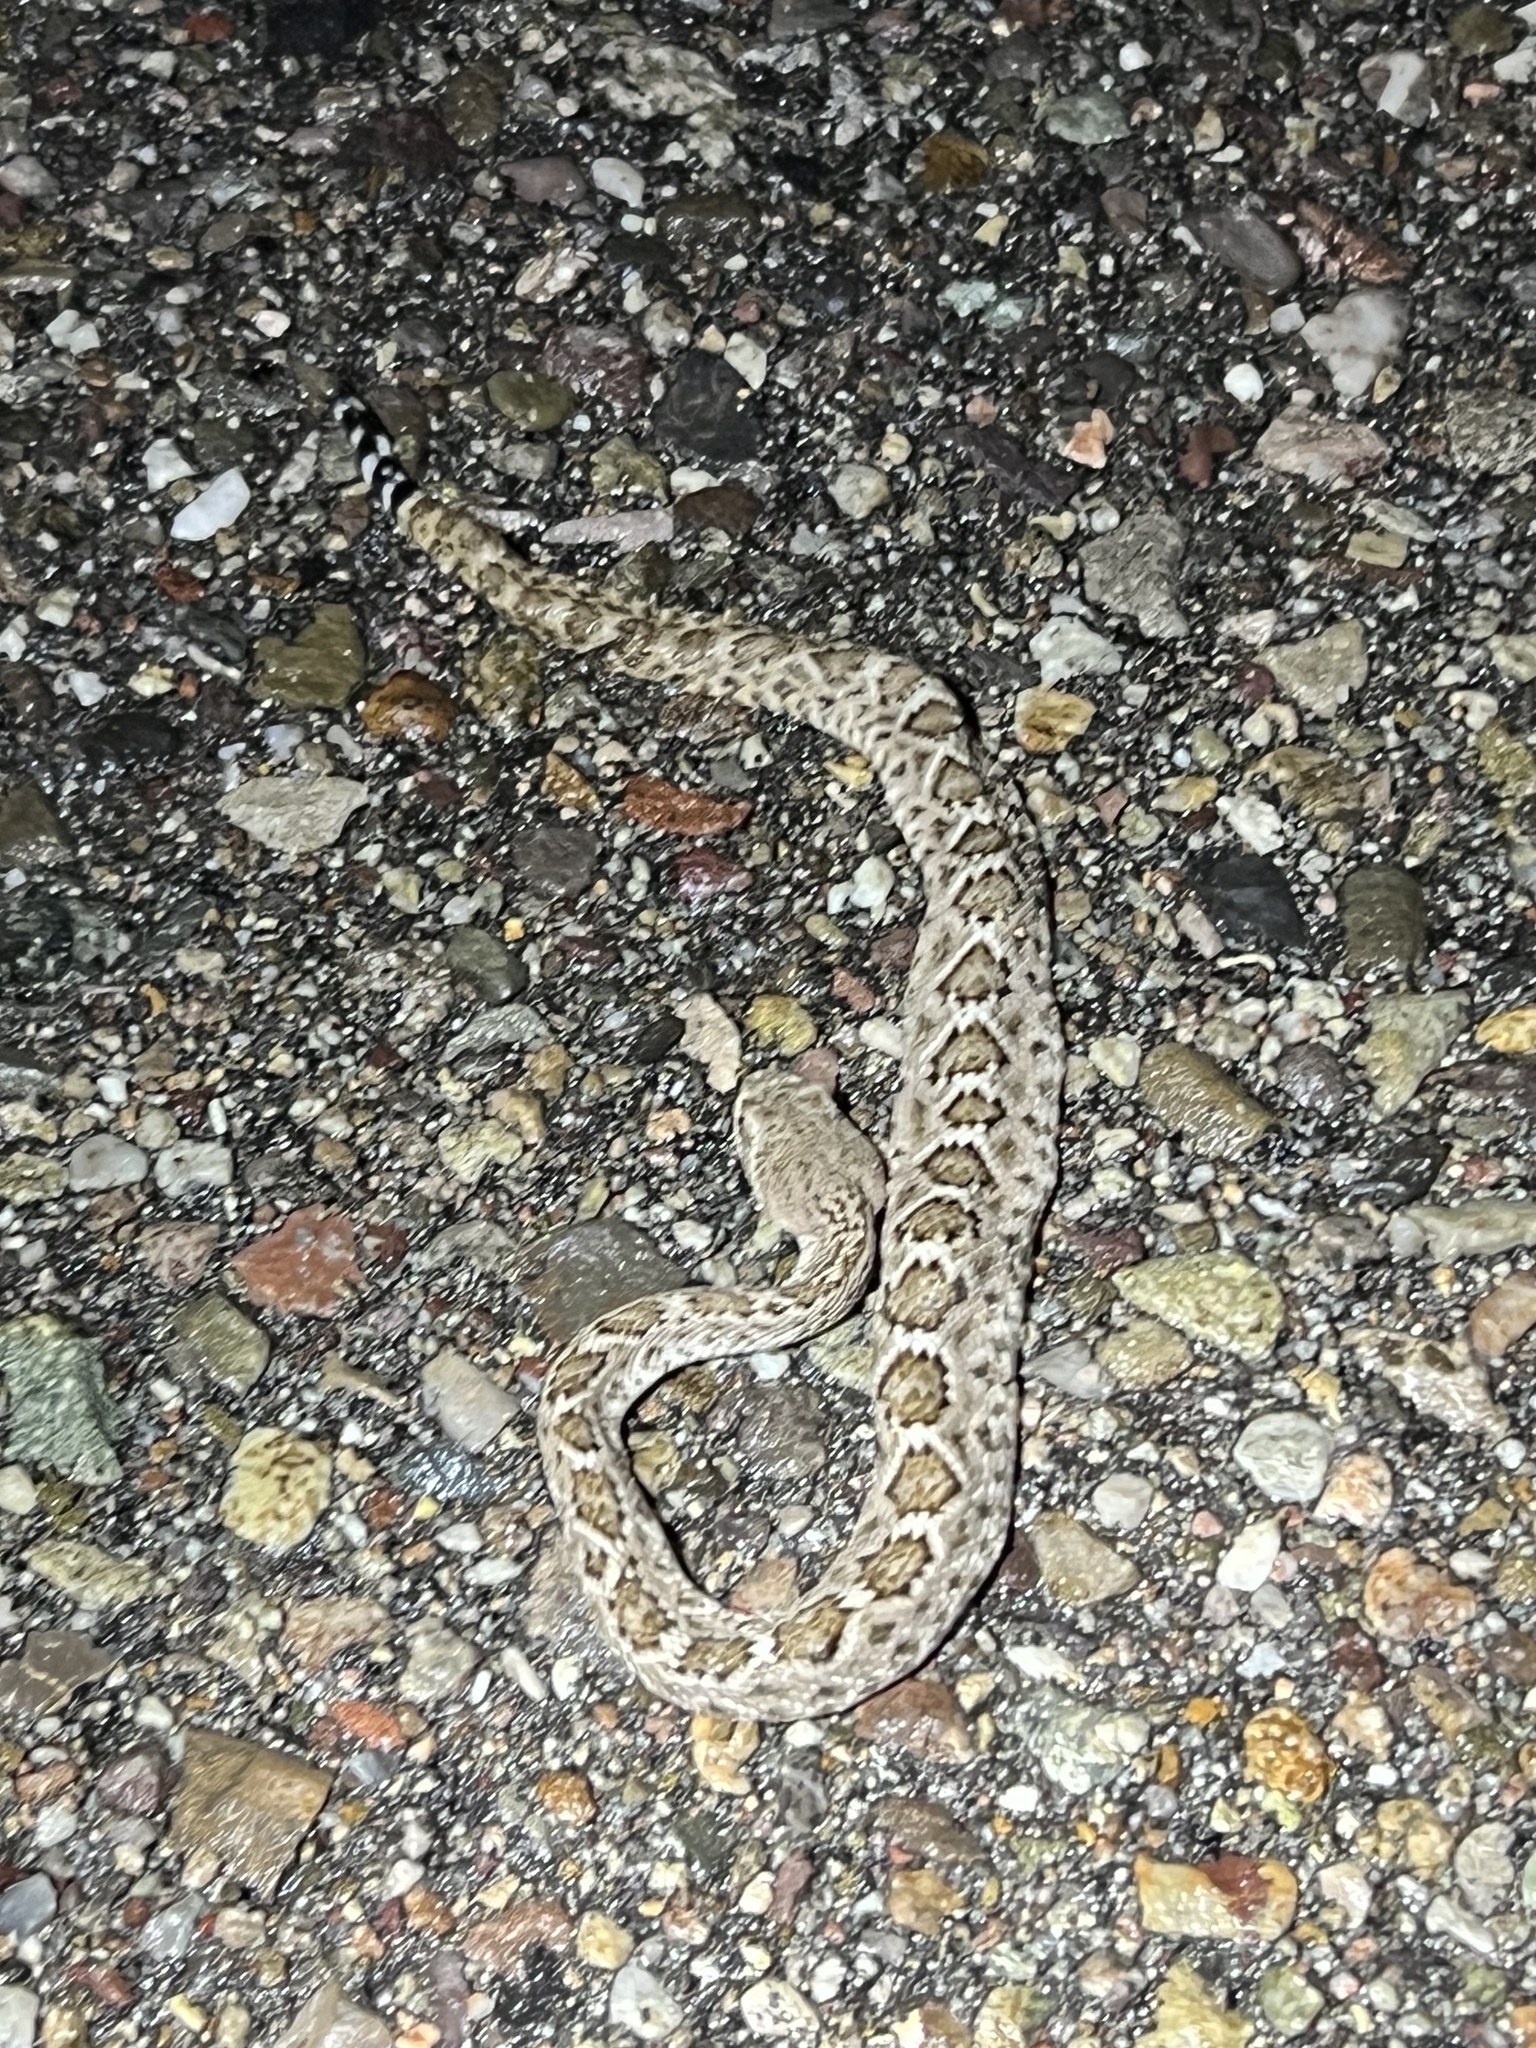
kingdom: Animalia
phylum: Chordata
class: Squamata
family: Viperidae
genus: Crotalus
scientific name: Crotalus atrox
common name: Western diamond-backed rattlesnake
